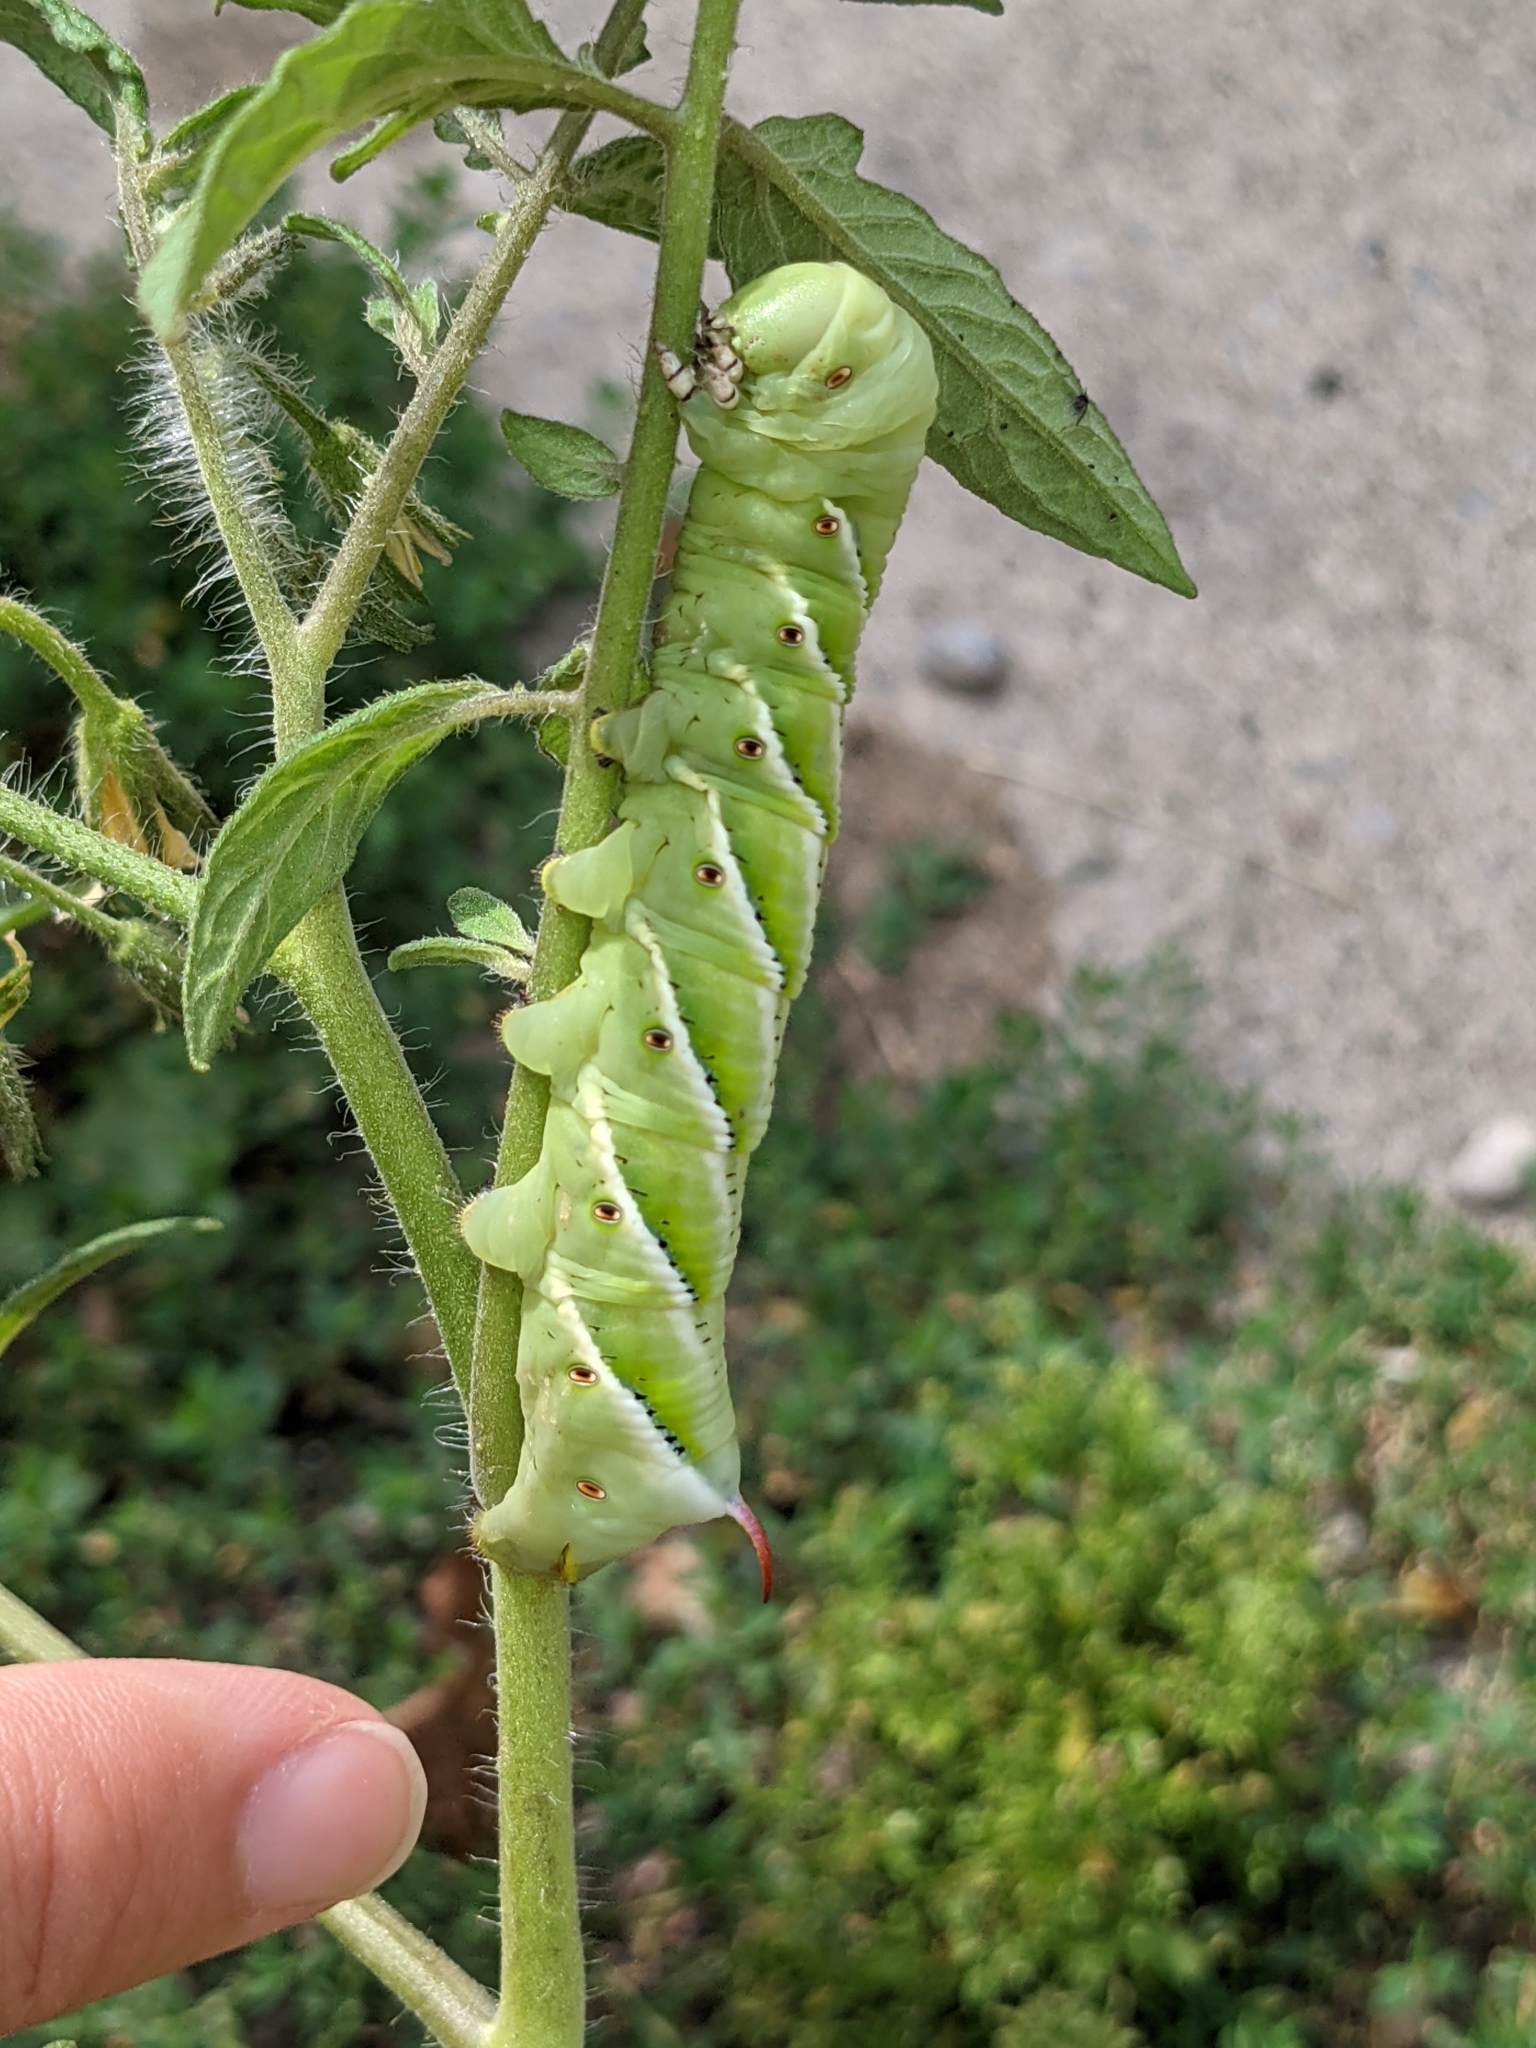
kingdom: Animalia
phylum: Arthropoda
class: Insecta
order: Lepidoptera
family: Sphingidae
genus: Manduca
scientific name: Manduca sexta
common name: Carolina sphinx
